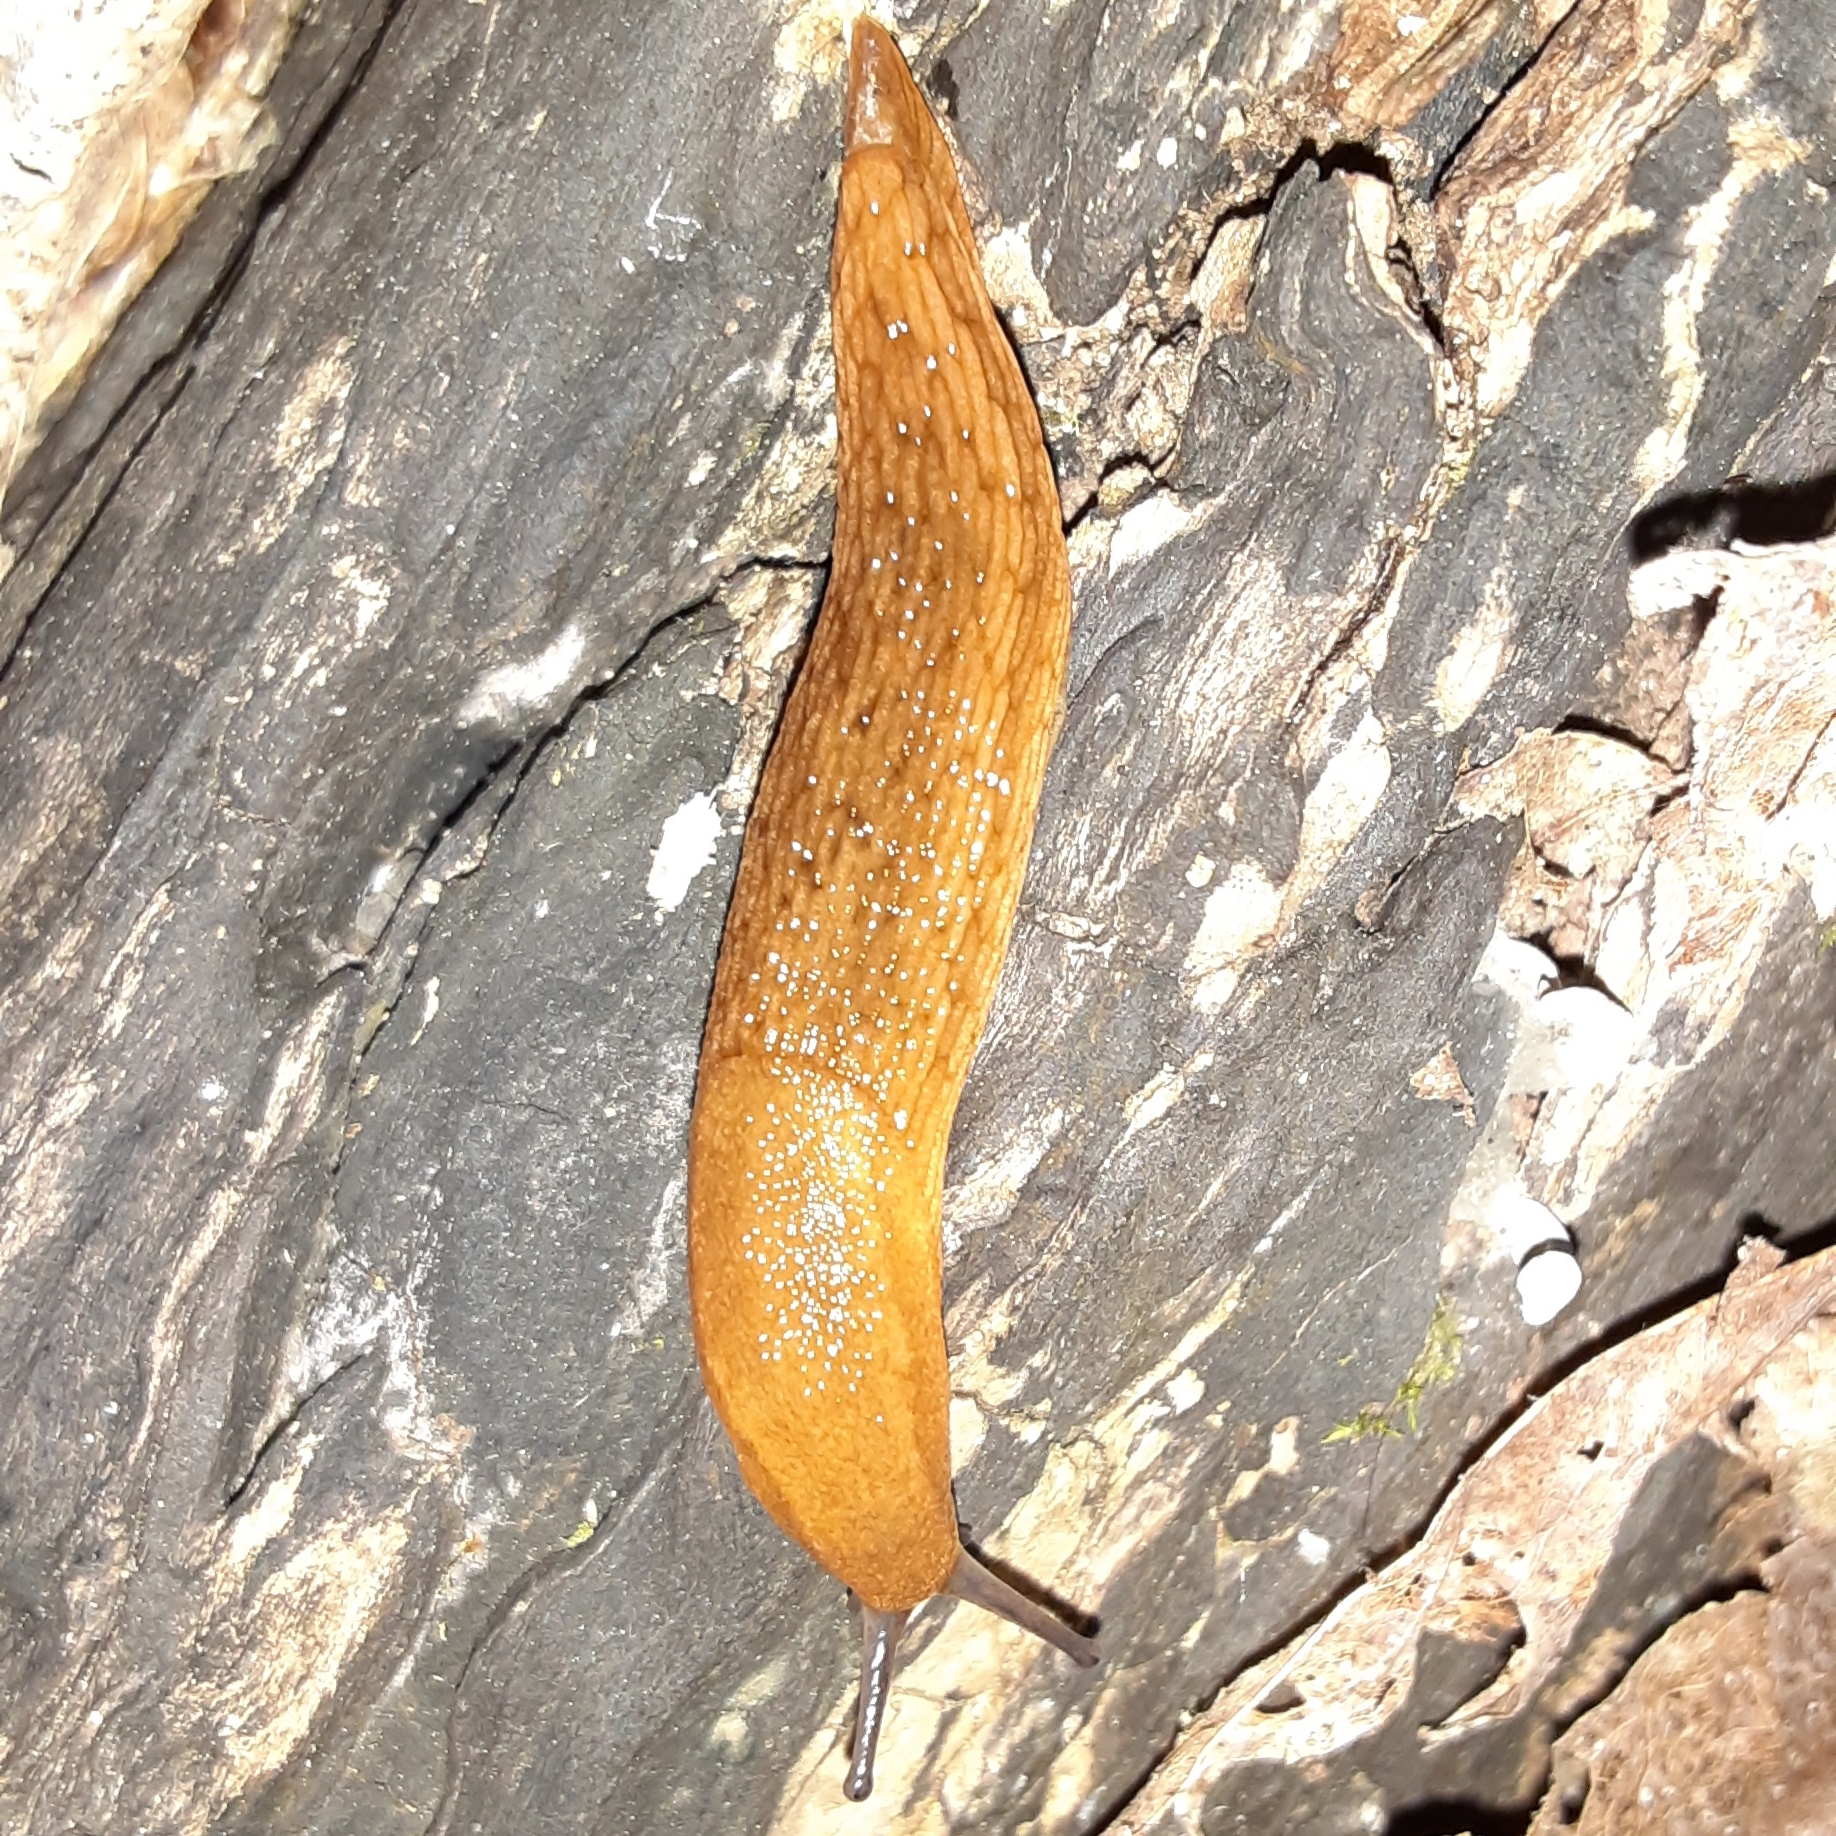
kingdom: Animalia
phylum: Mollusca
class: Gastropoda
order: Stylommatophora
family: Arionidae
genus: Arion
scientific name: Arion subfuscus
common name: Dusky arion
